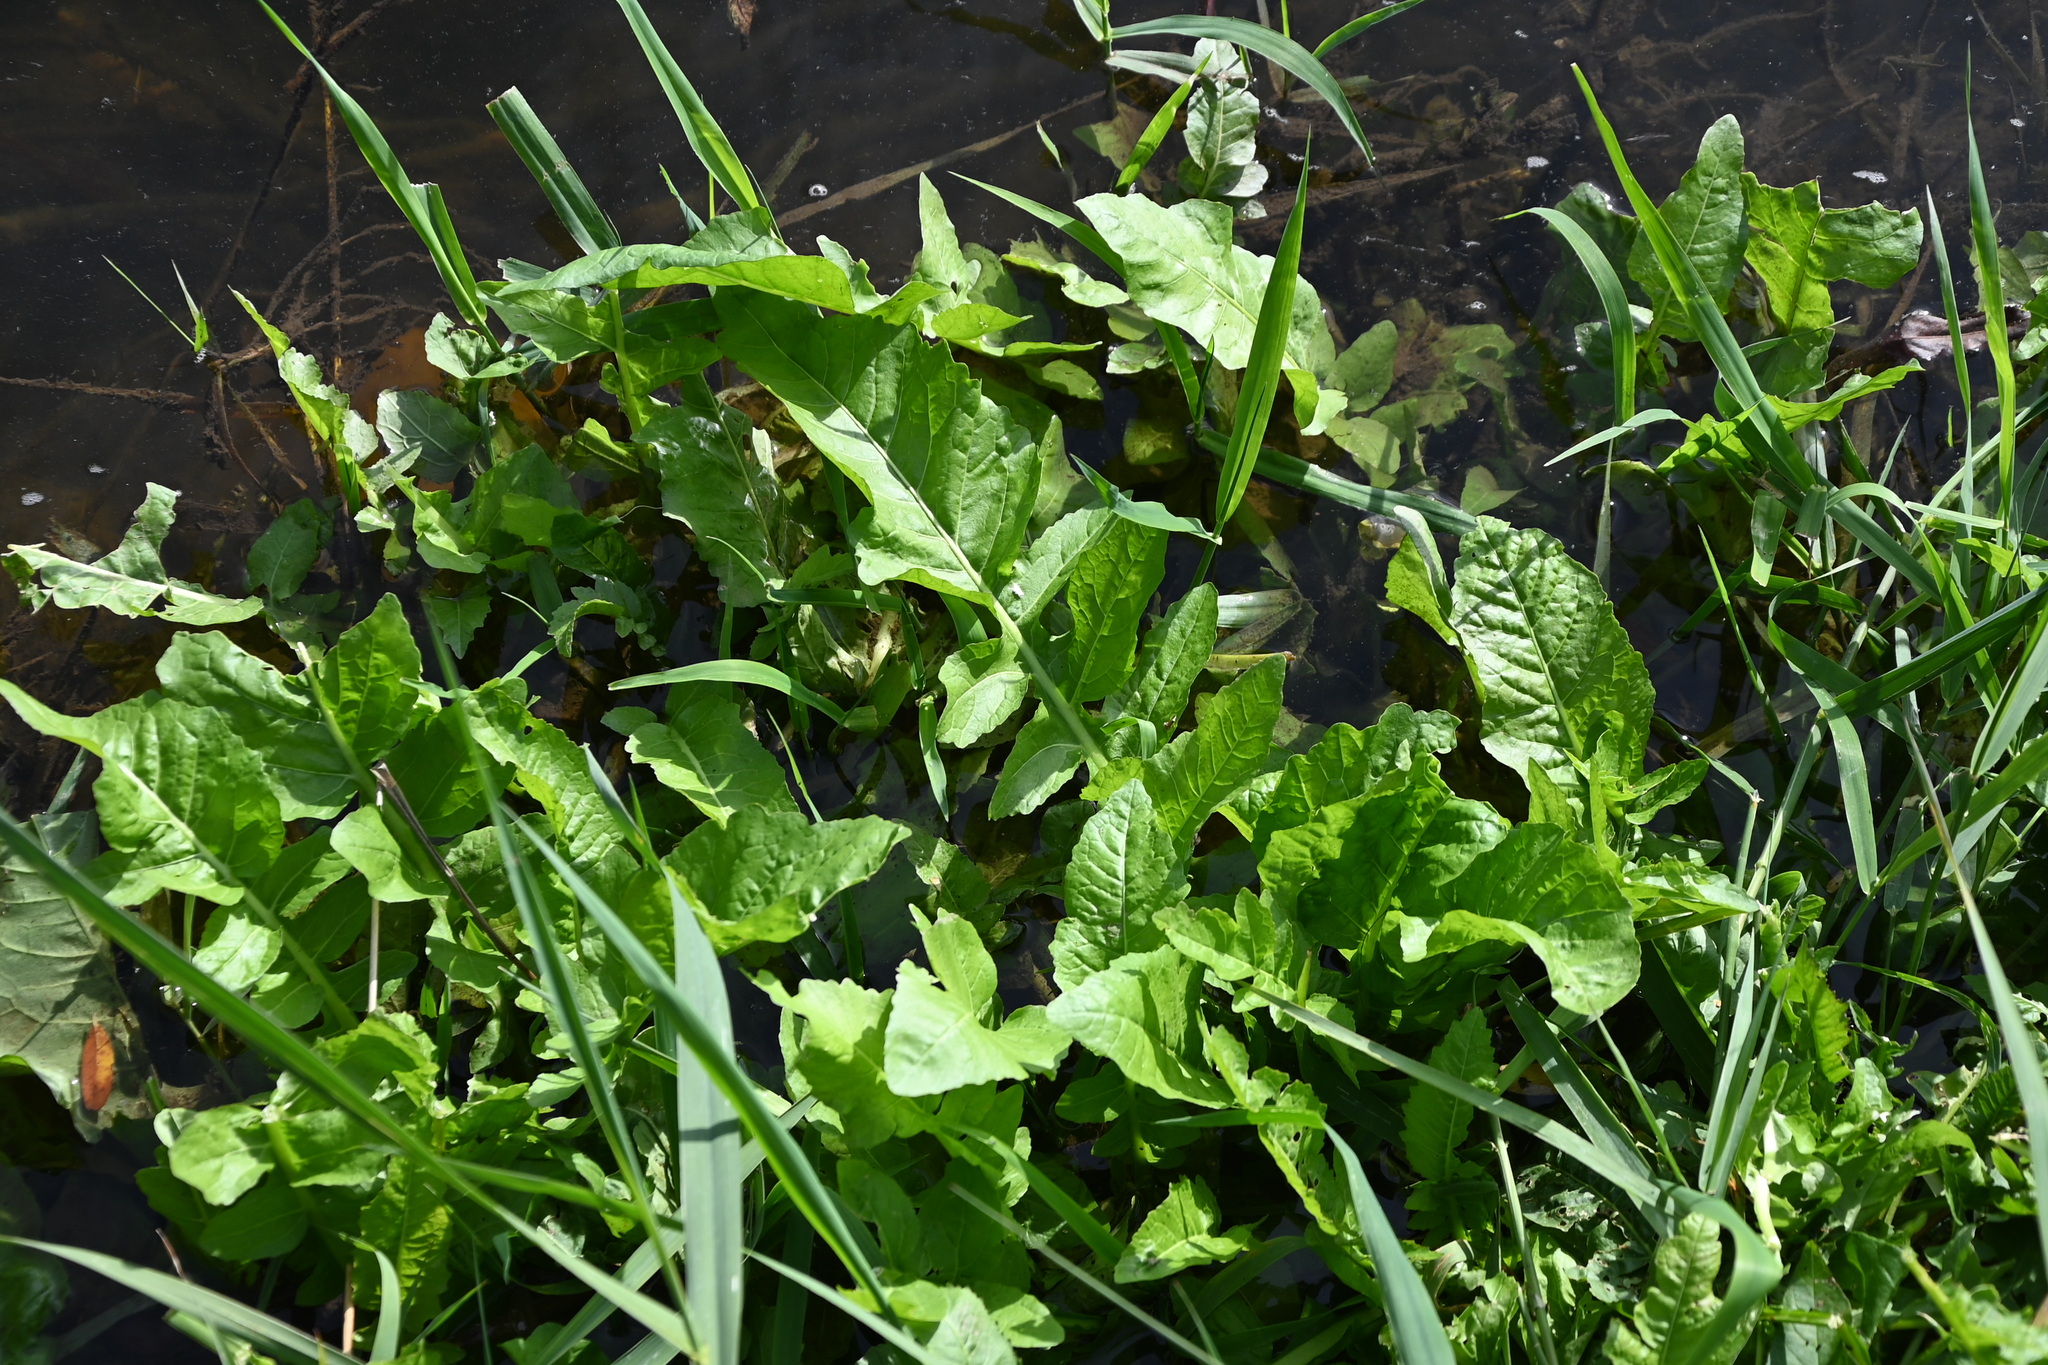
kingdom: Plantae
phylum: Tracheophyta
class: Magnoliopsida
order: Brassicales
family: Brassicaceae
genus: Rorippa
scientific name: Rorippa amphibia
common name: Great yellow-cress
